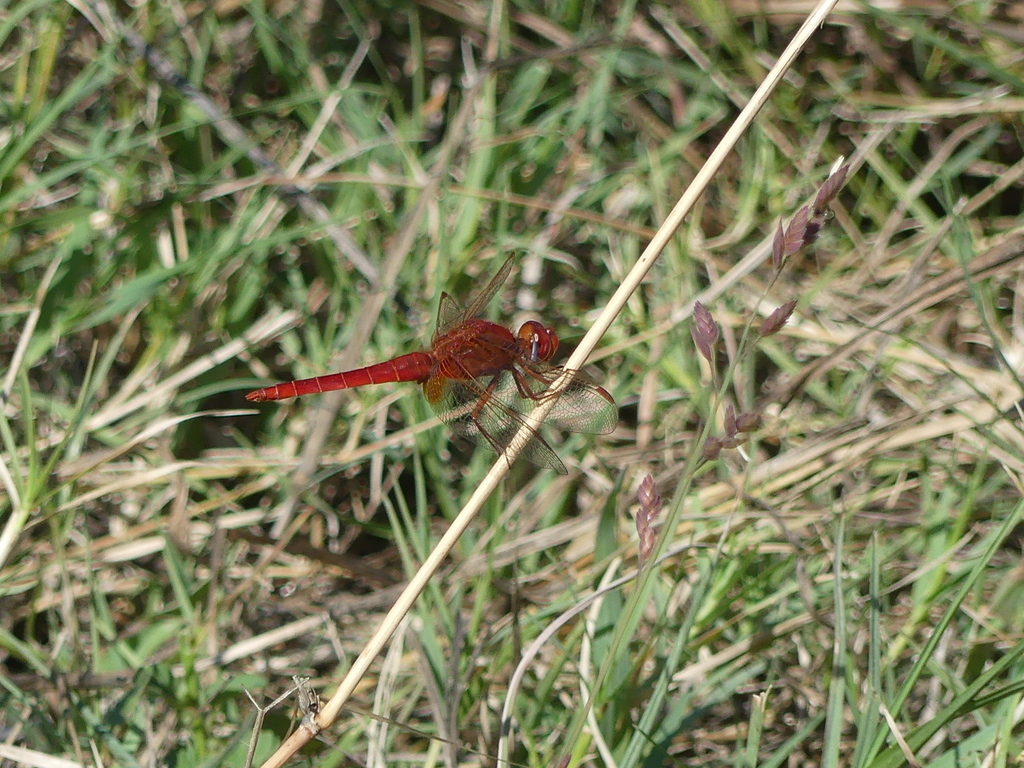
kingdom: Animalia
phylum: Arthropoda
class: Insecta
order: Odonata
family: Libellulidae
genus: Crocothemis
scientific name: Crocothemis erythraea
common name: Scarlet dragonfly
